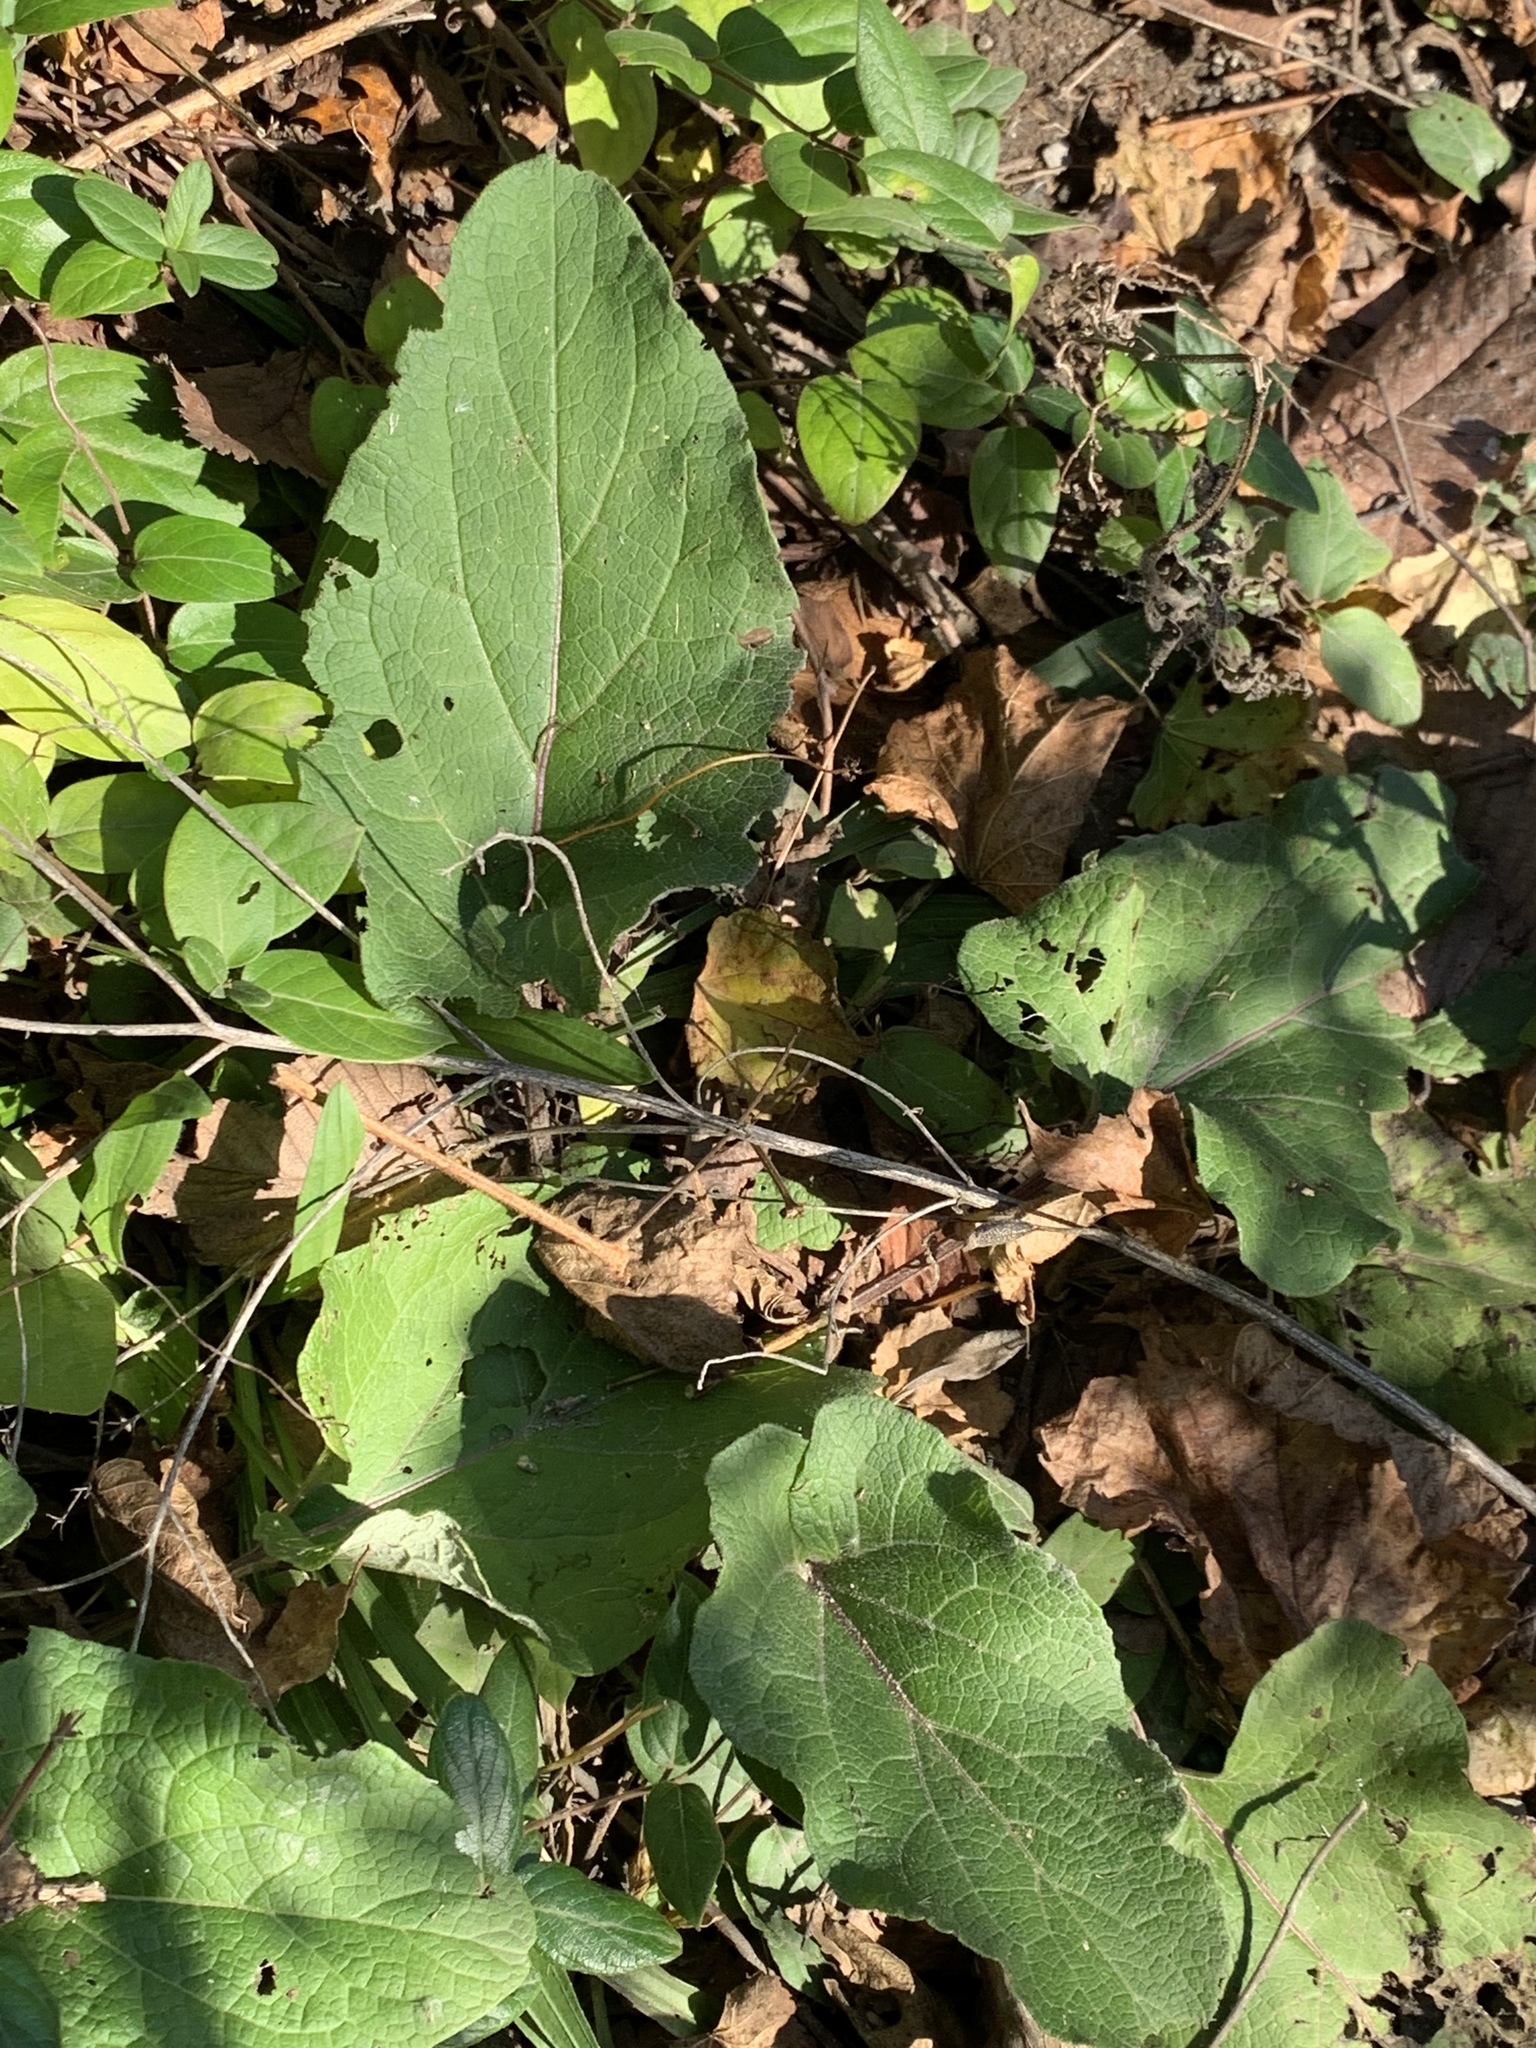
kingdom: Plantae
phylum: Tracheophyta
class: Magnoliopsida
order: Asterales
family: Asteraceae
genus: Arctium
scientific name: Arctium
